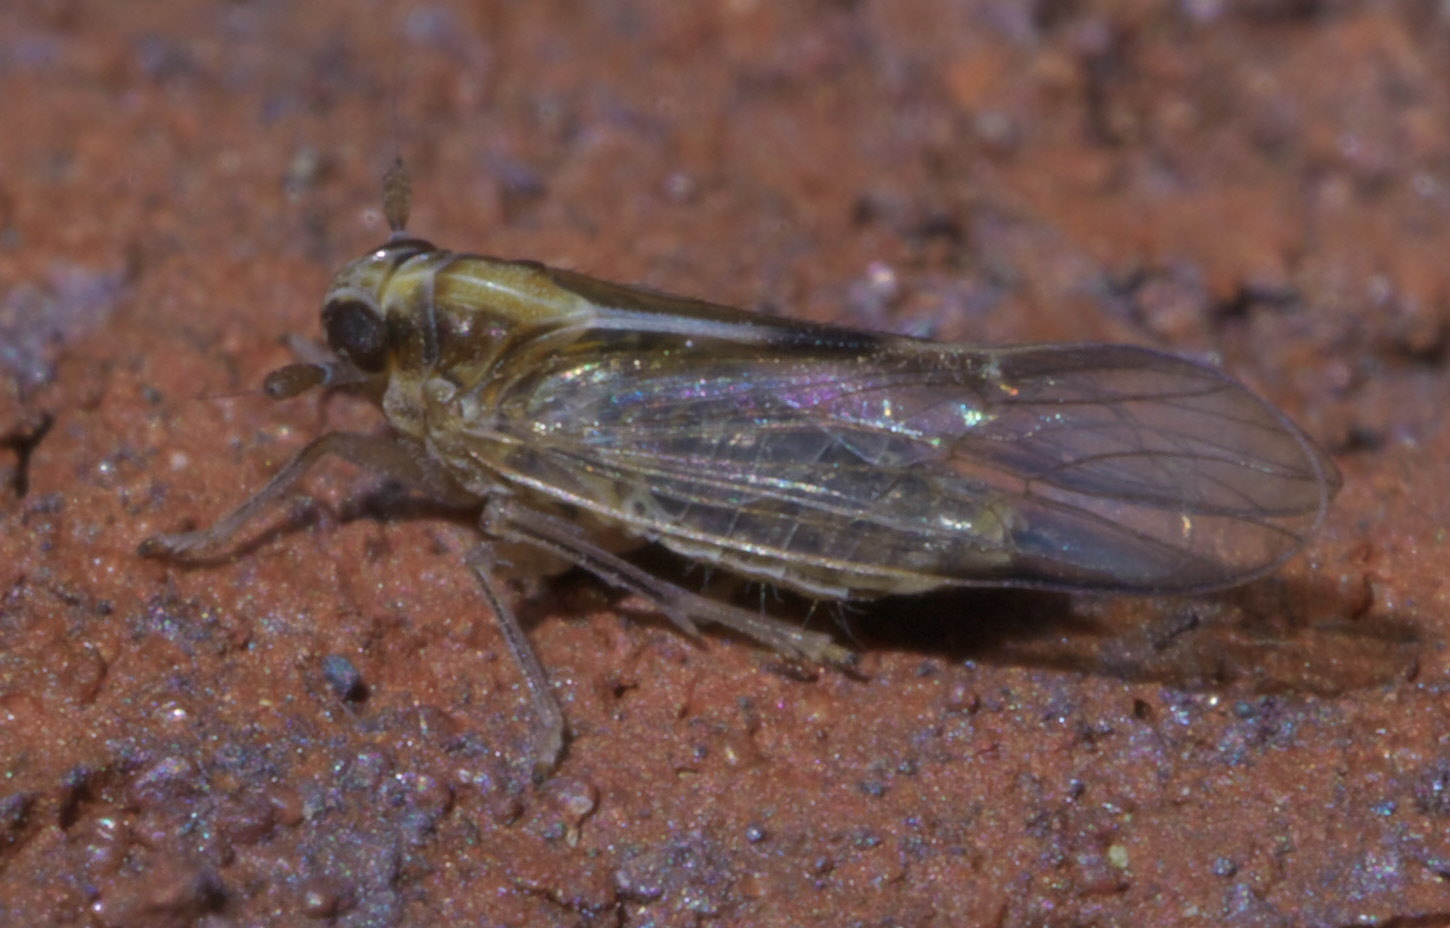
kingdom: Animalia
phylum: Arthropoda
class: Insecta
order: Hemiptera
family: Delphacidae
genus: Muellerianella
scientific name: Muellerianella laminalis
